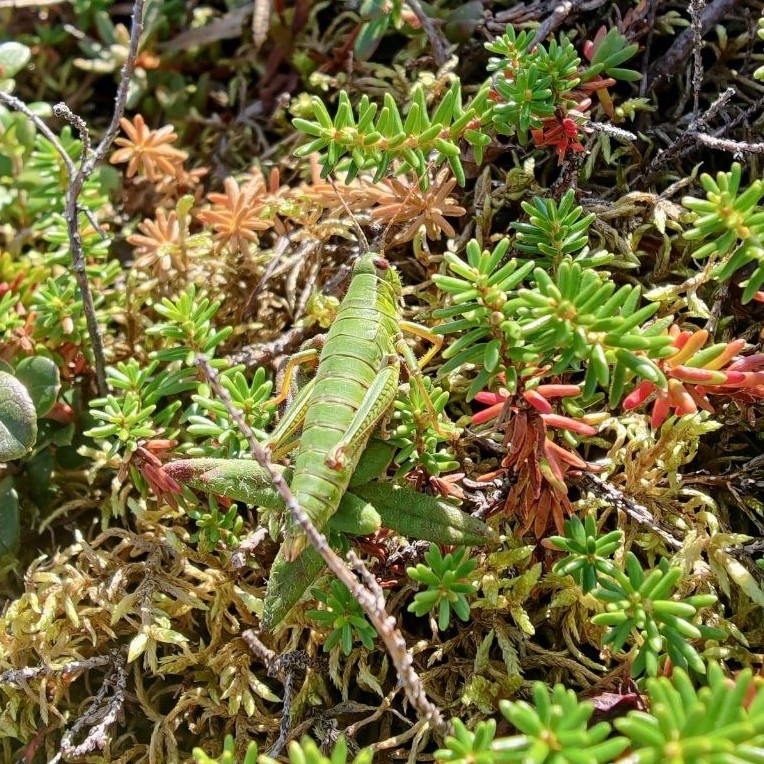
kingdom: Animalia
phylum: Arthropoda
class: Insecta
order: Orthoptera
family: Acrididae
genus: Zubovskya
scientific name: Zubovskya koeppeni
